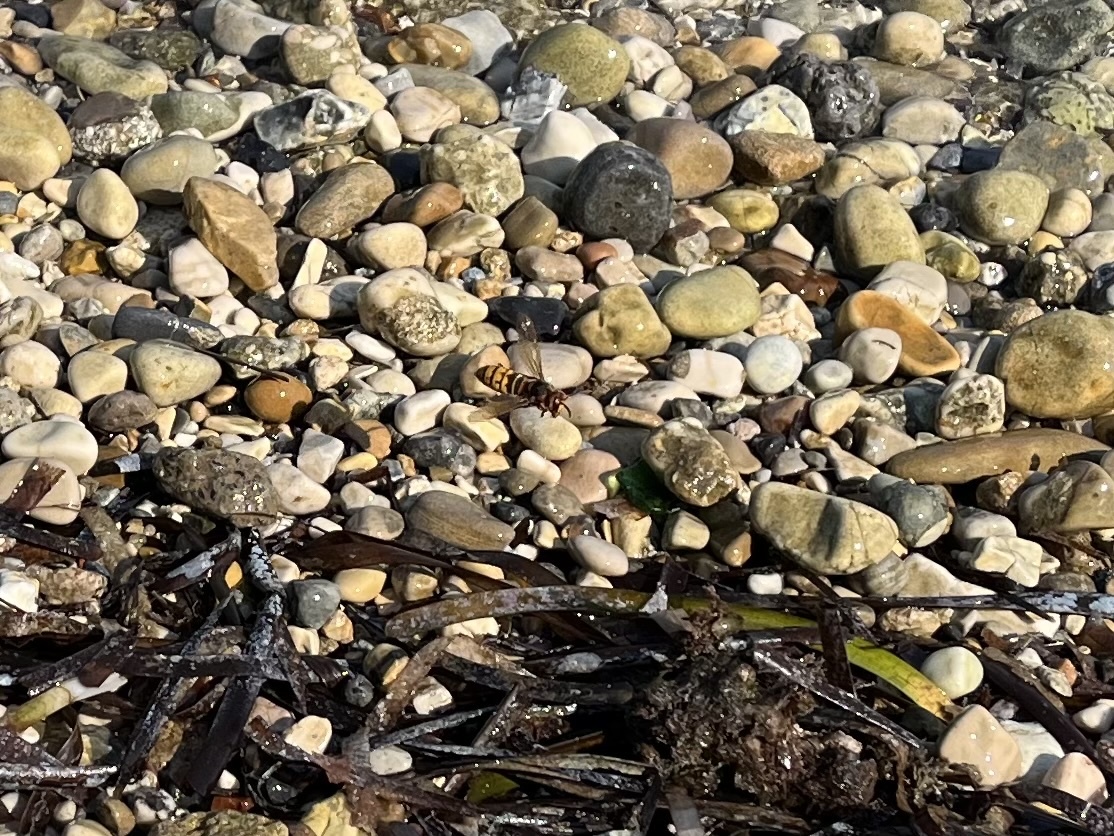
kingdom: Animalia
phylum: Arthropoda
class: Insecta
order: Hymenoptera
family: Vespidae
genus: Vespa
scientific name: Vespa crabro
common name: Hornet
